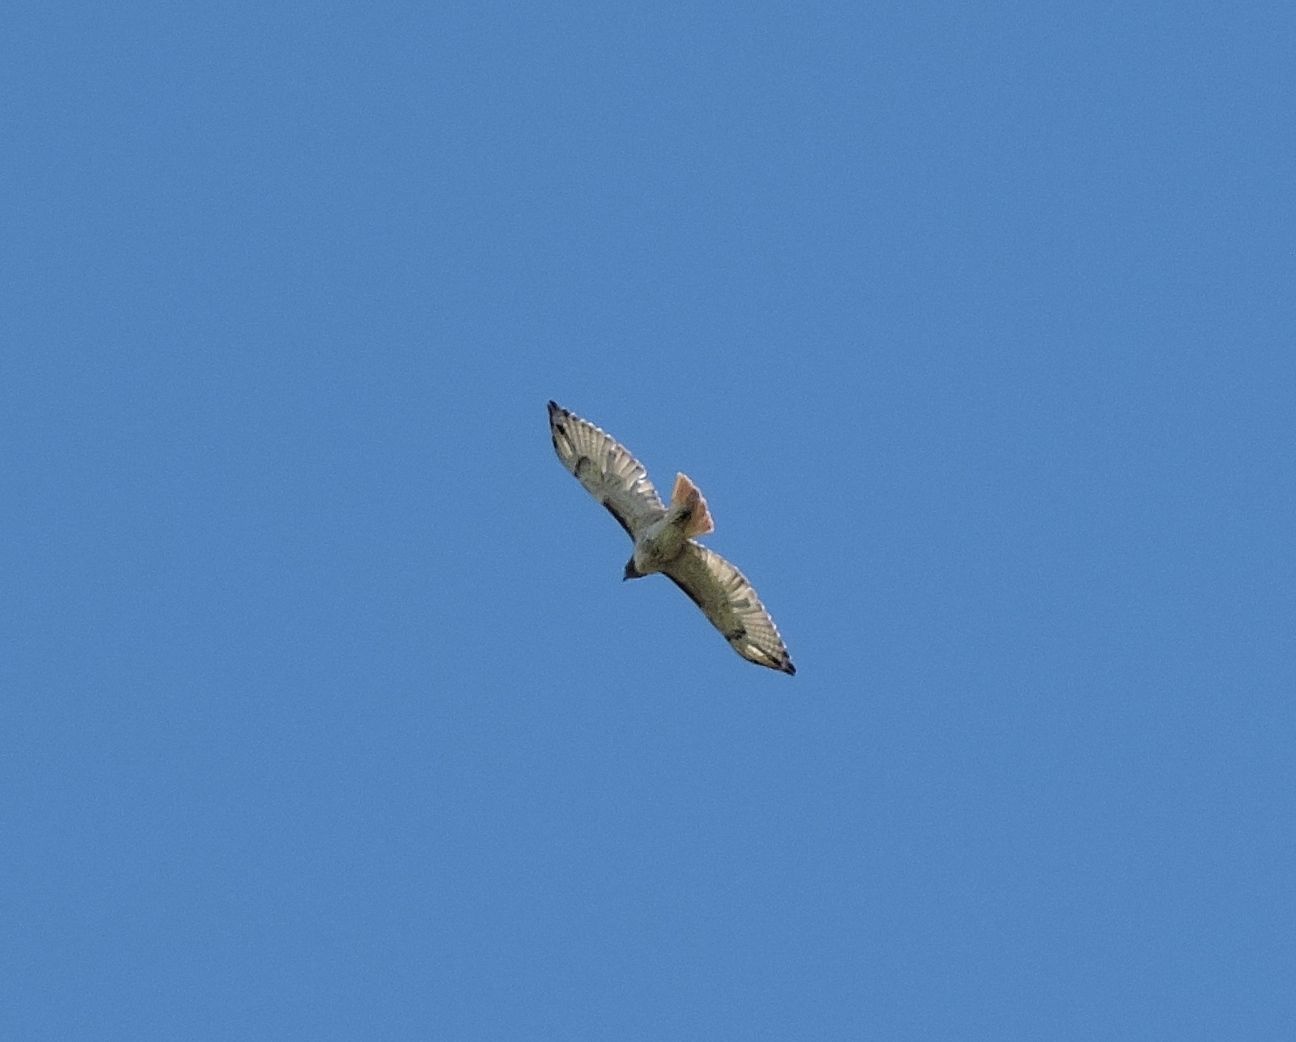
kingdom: Animalia
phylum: Chordata
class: Aves
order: Accipitriformes
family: Accipitridae
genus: Buteo
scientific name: Buteo jamaicensis
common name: Red-tailed hawk
